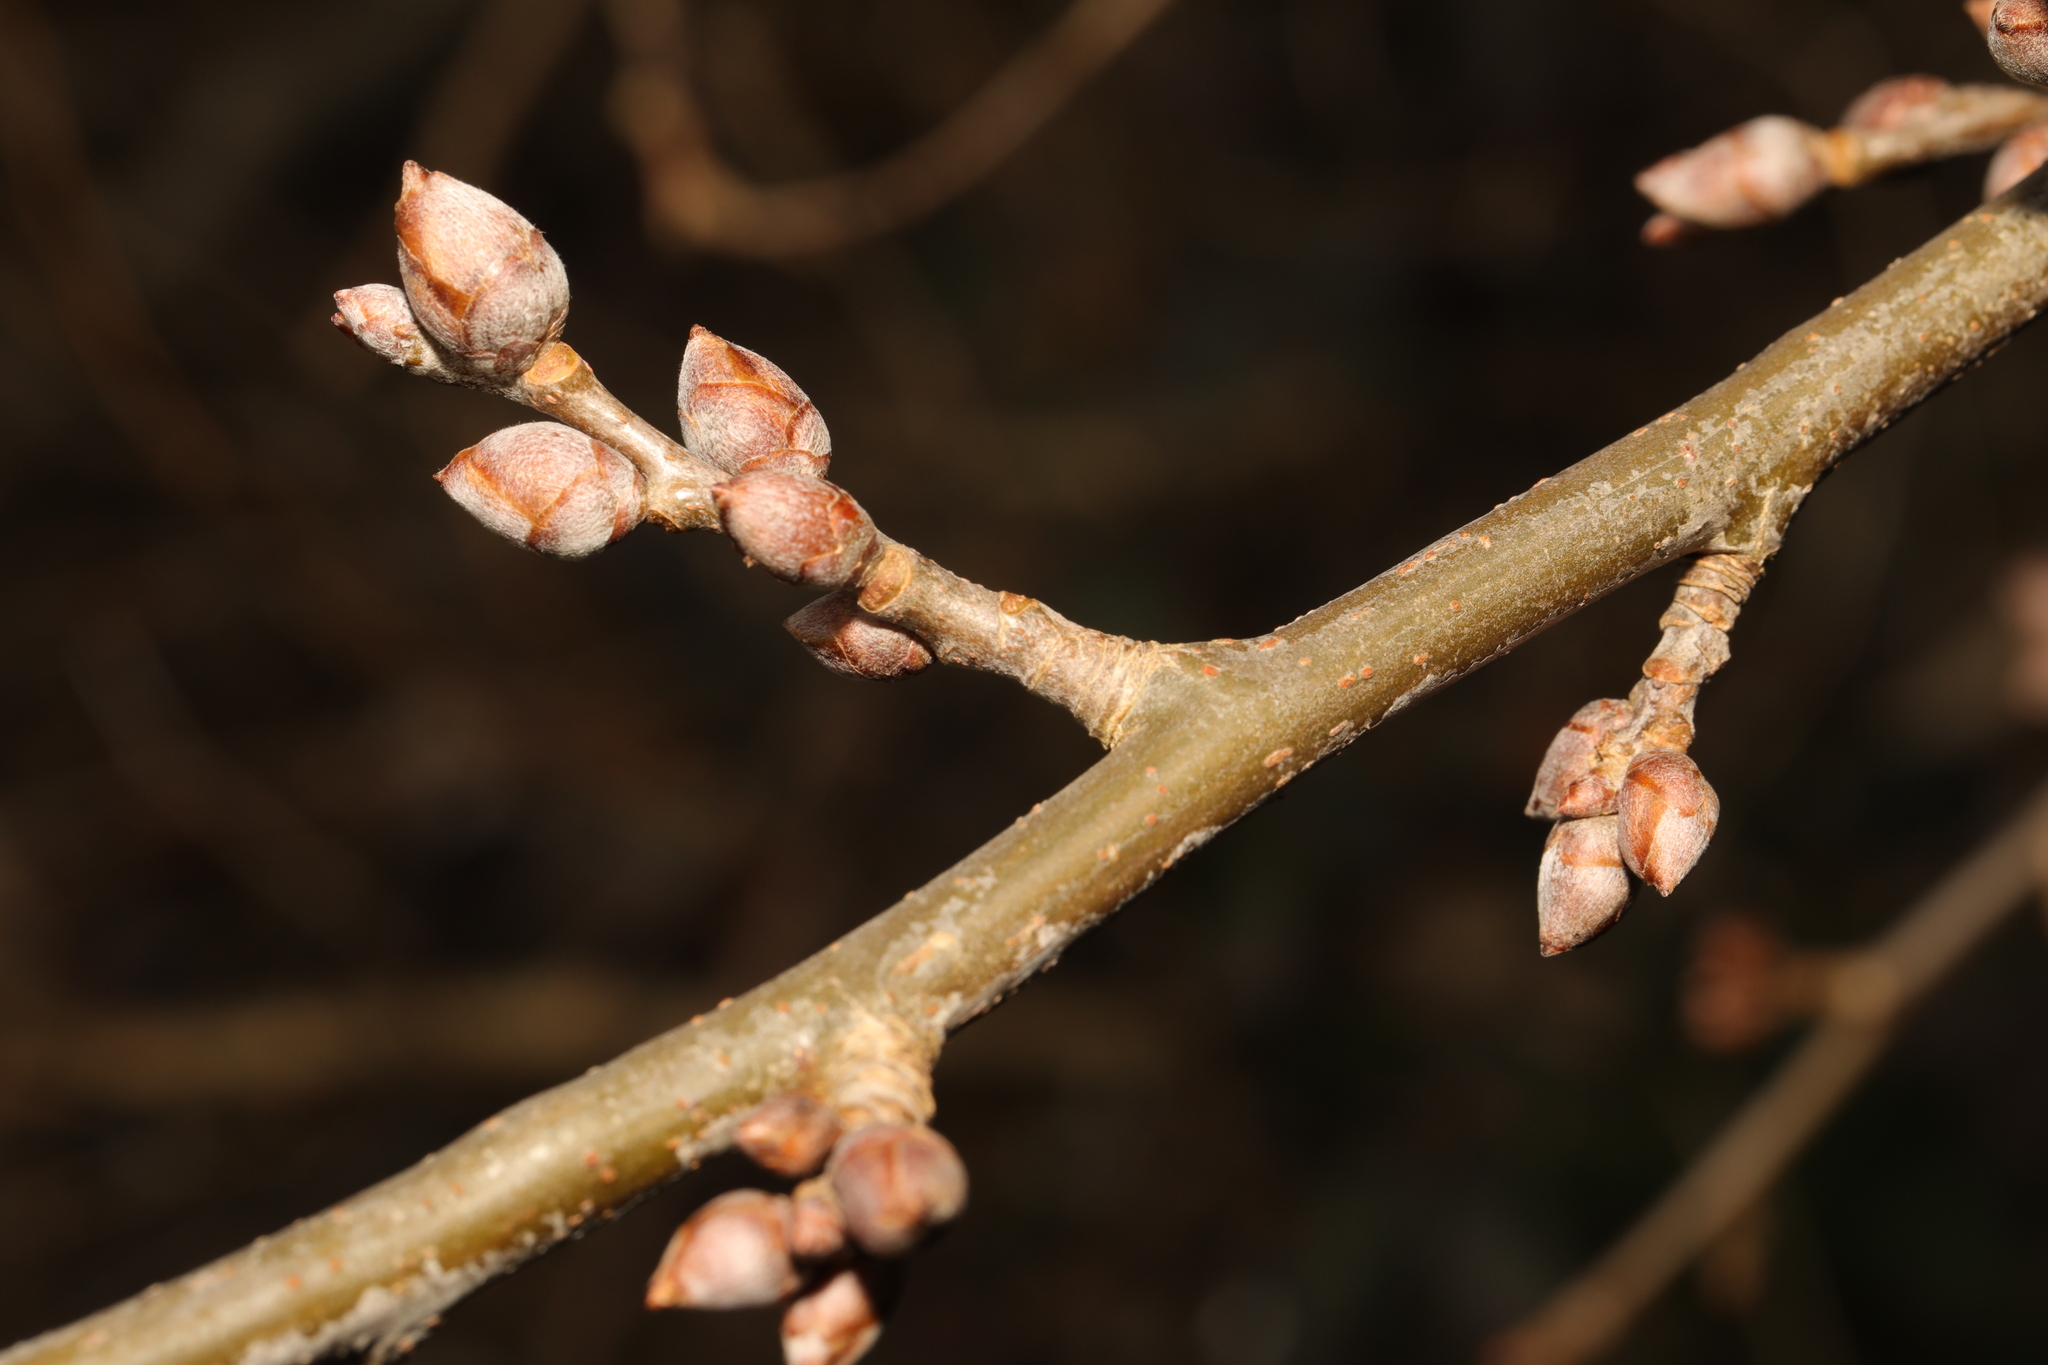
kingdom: Plantae
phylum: Tracheophyta
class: Magnoliopsida
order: Malpighiales
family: Salicaceae
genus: Populus
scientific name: Populus canescens
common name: Gray poplar
